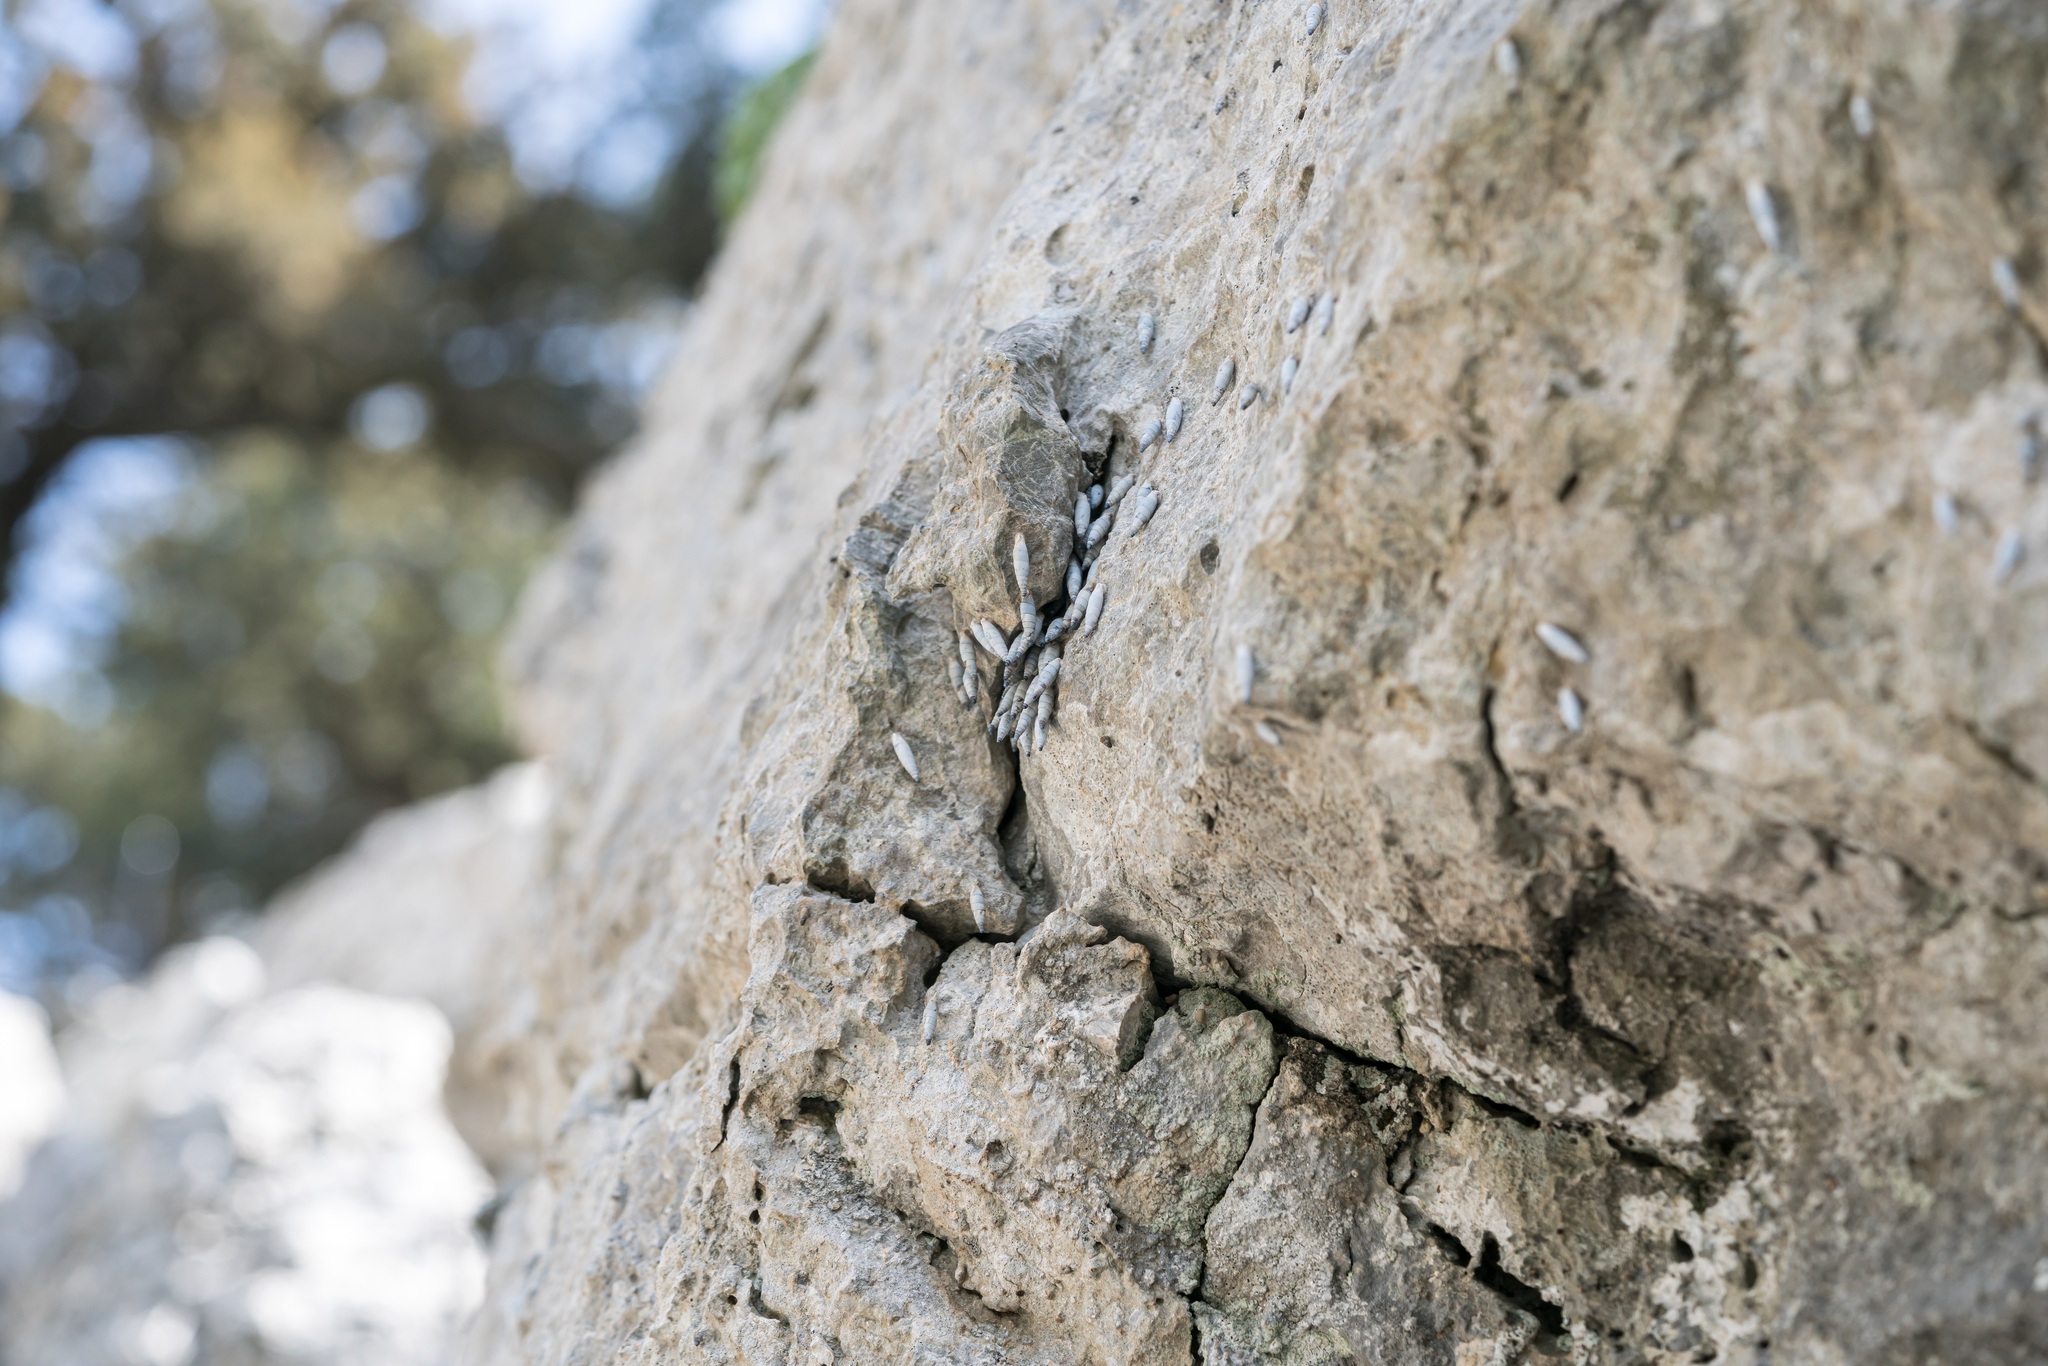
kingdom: Animalia
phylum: Mollusca
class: Gastropoda
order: Stylommatophora
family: Clausiliidae
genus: Albinaria
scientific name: Albinaria brevicollis
